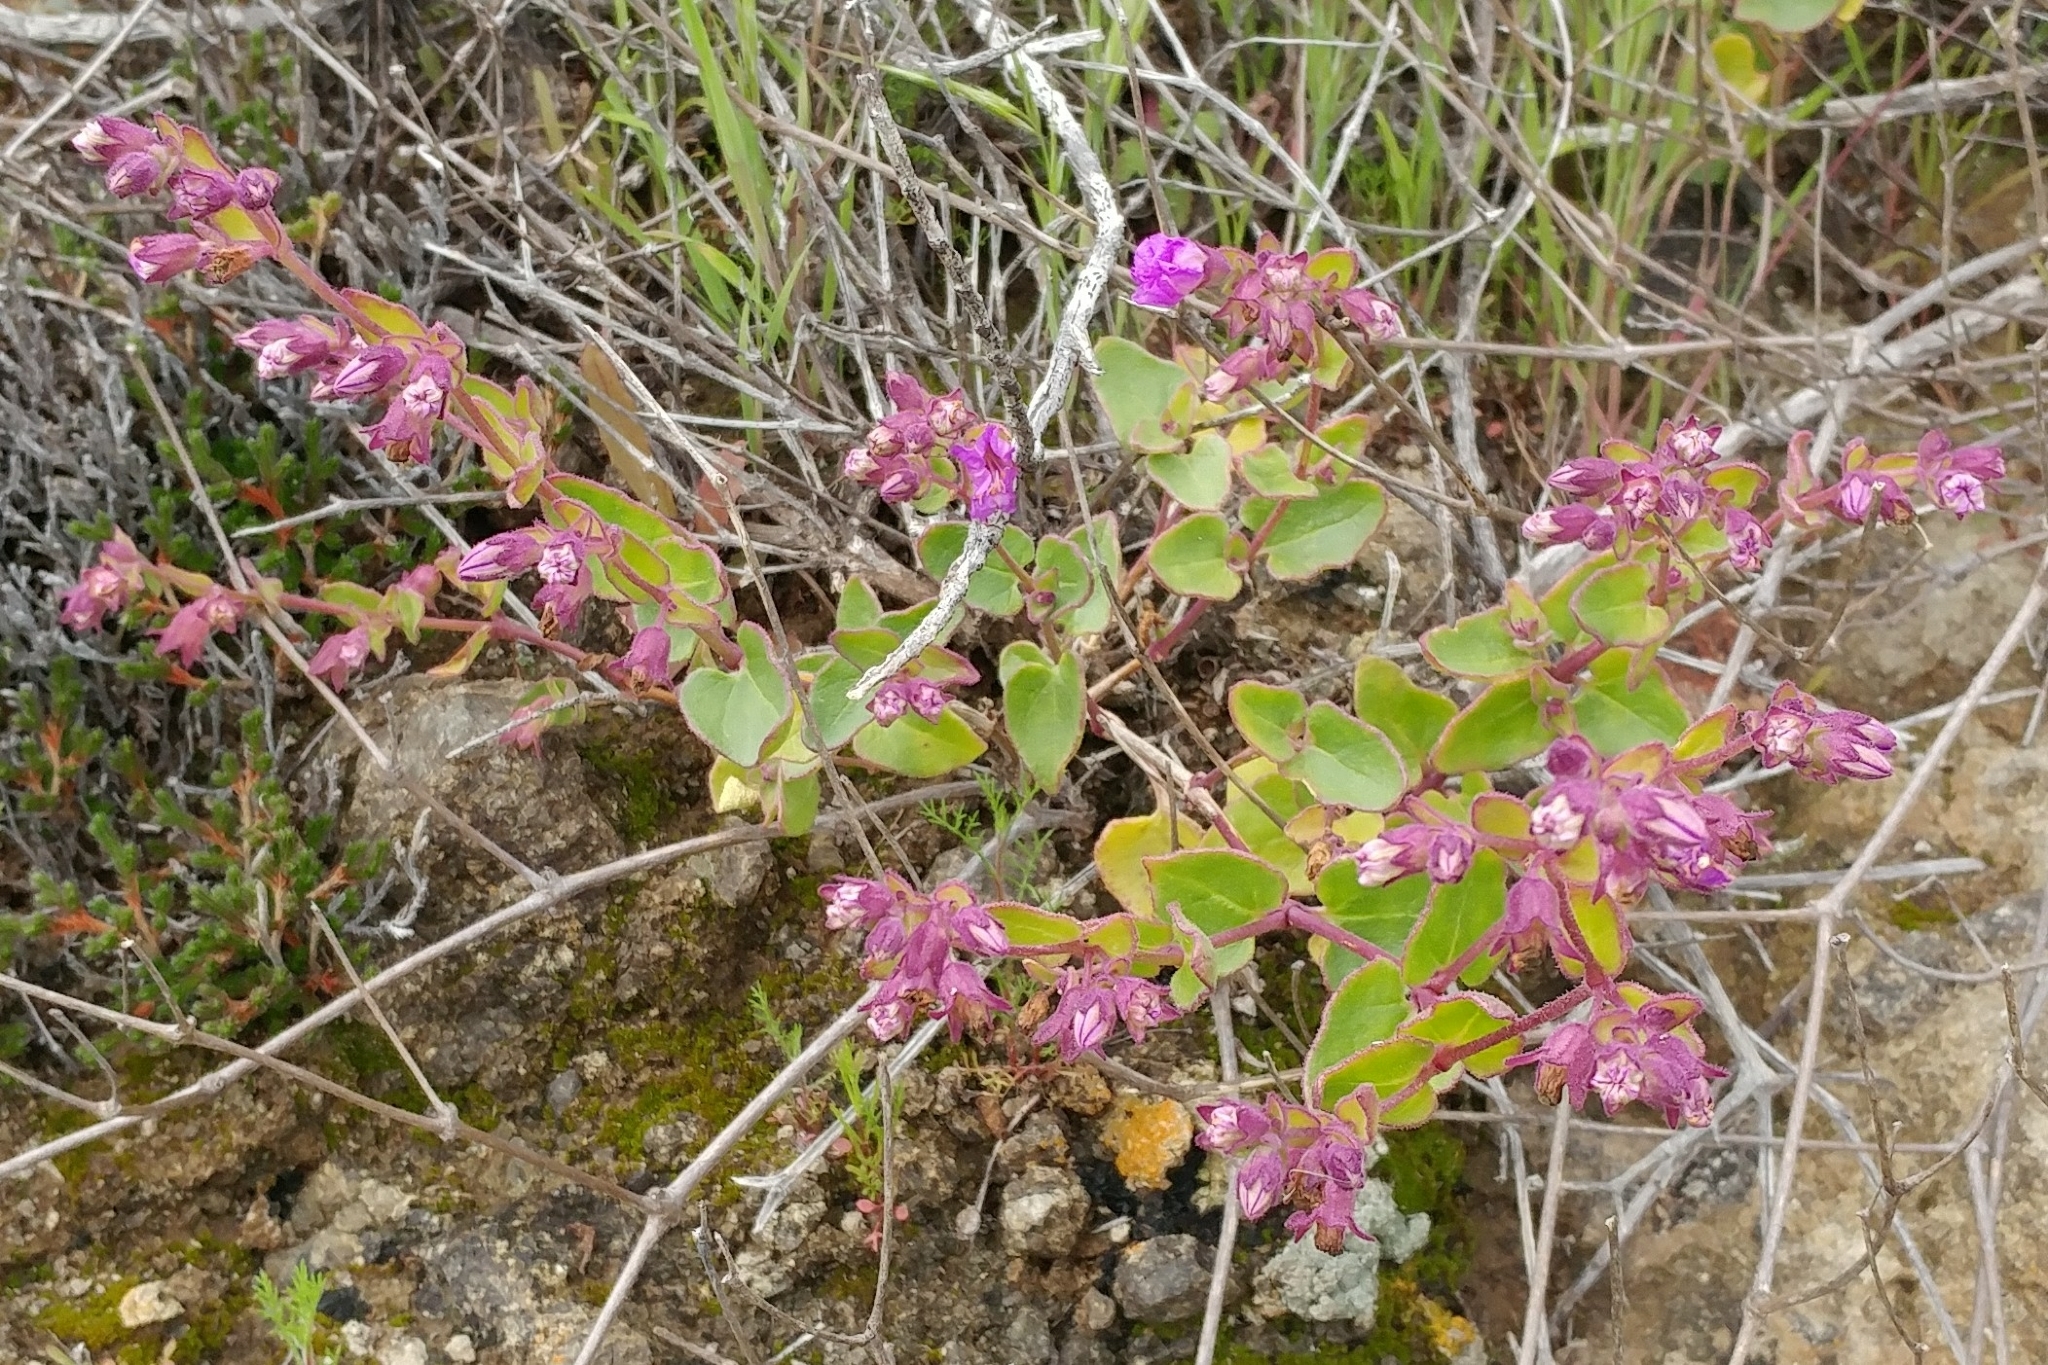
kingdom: Plantae
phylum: Tracheophyta
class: Magnoliopsida
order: Caryophyllales
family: Nyctaginaceae
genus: Mirabilis
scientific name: Mirabilis laevis
